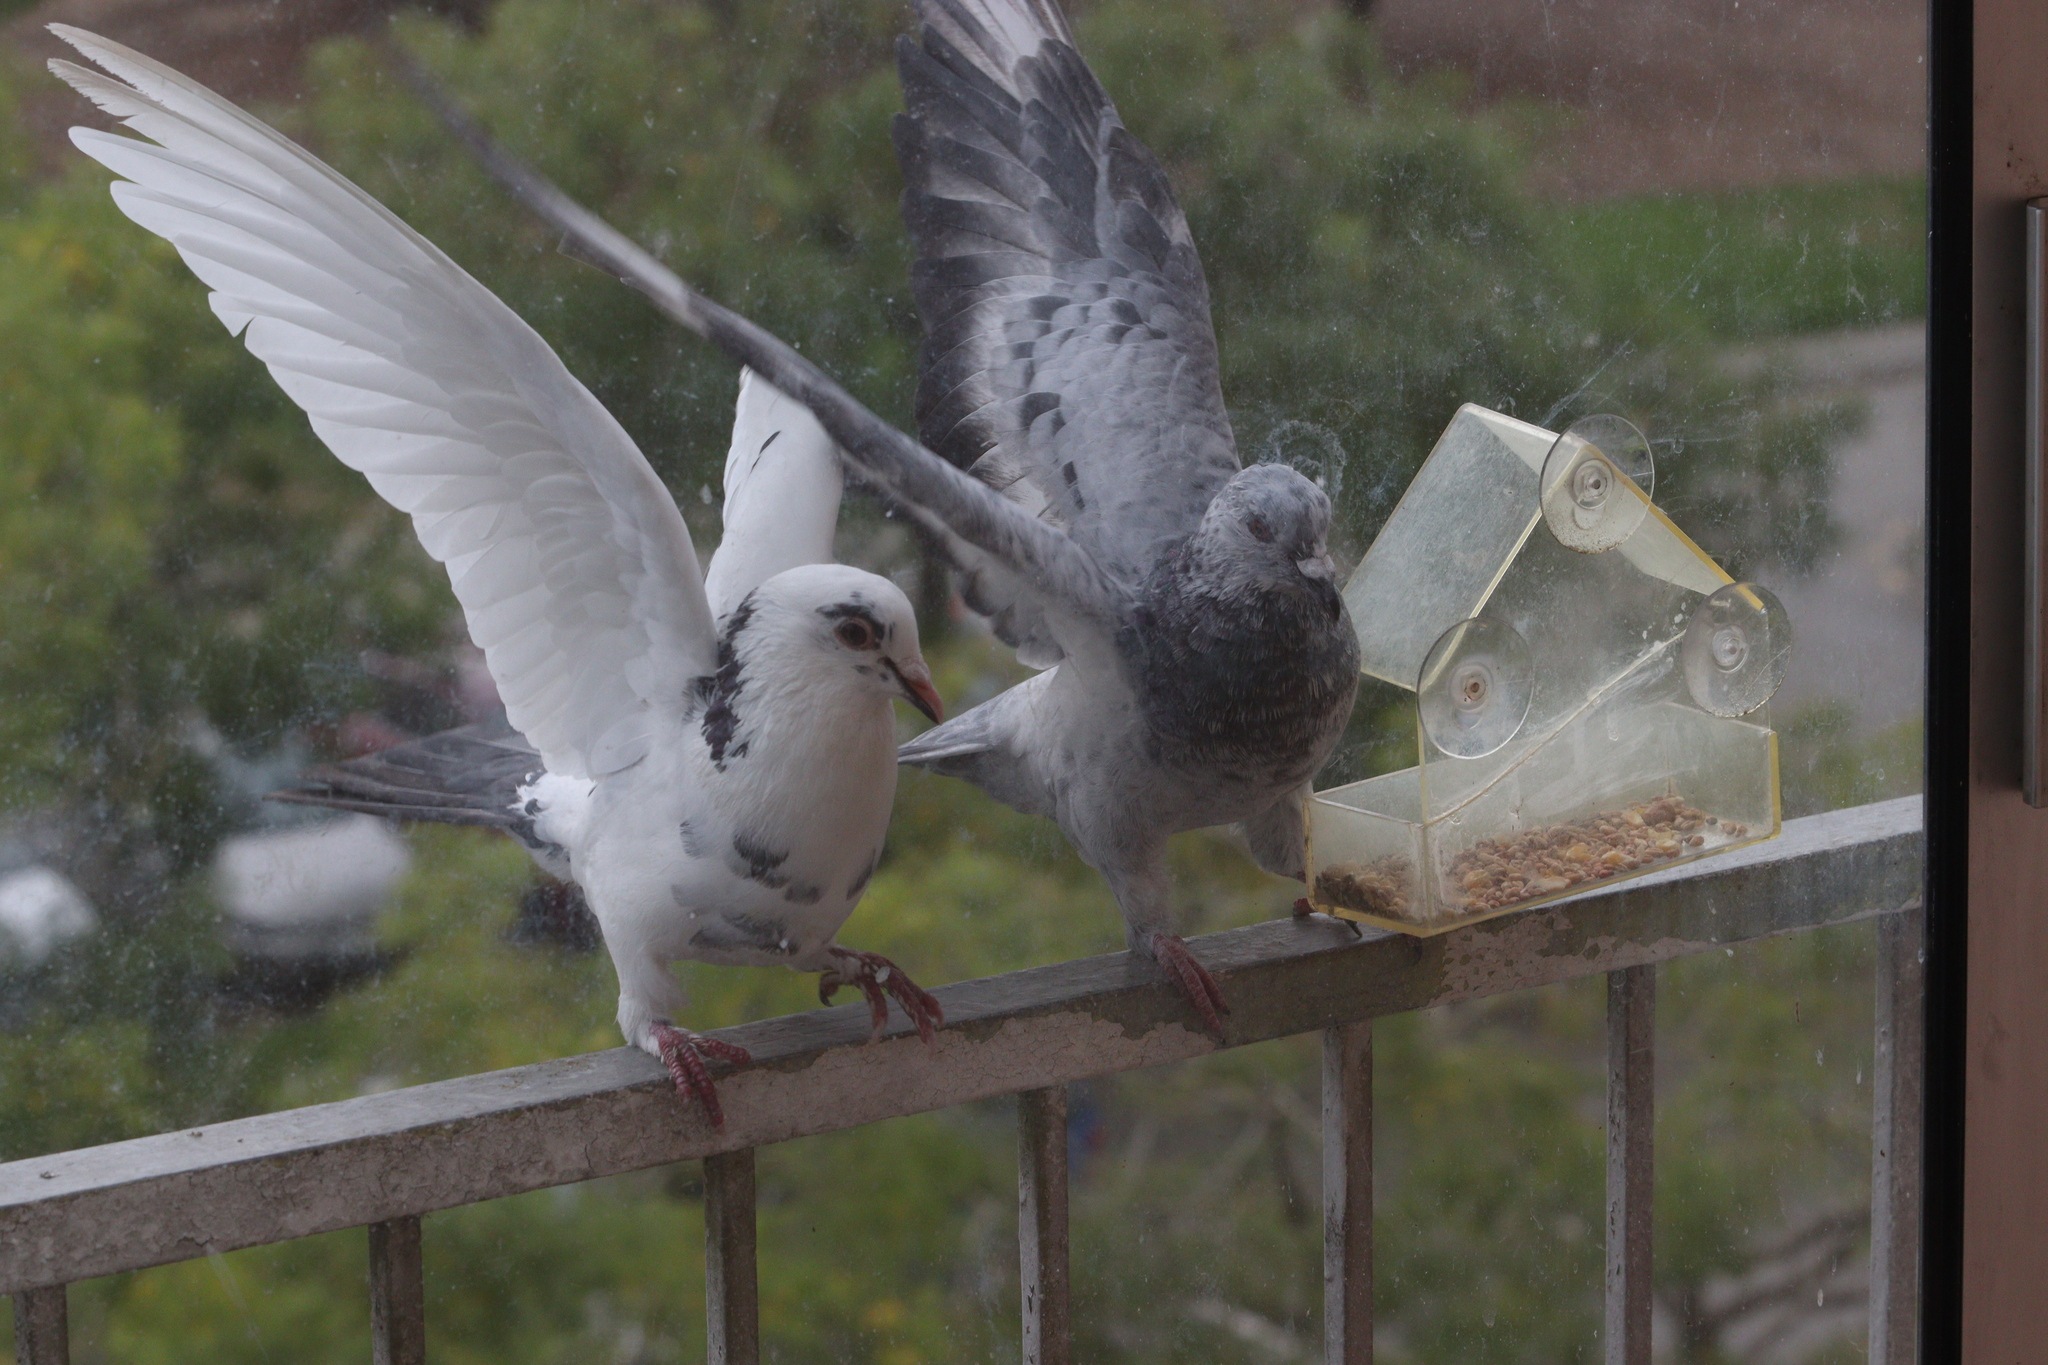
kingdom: Animalia
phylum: Chordata
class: Aves
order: Columbiformes
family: Columbidae
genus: Columba
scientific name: Columba livia
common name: Rock pigeon
